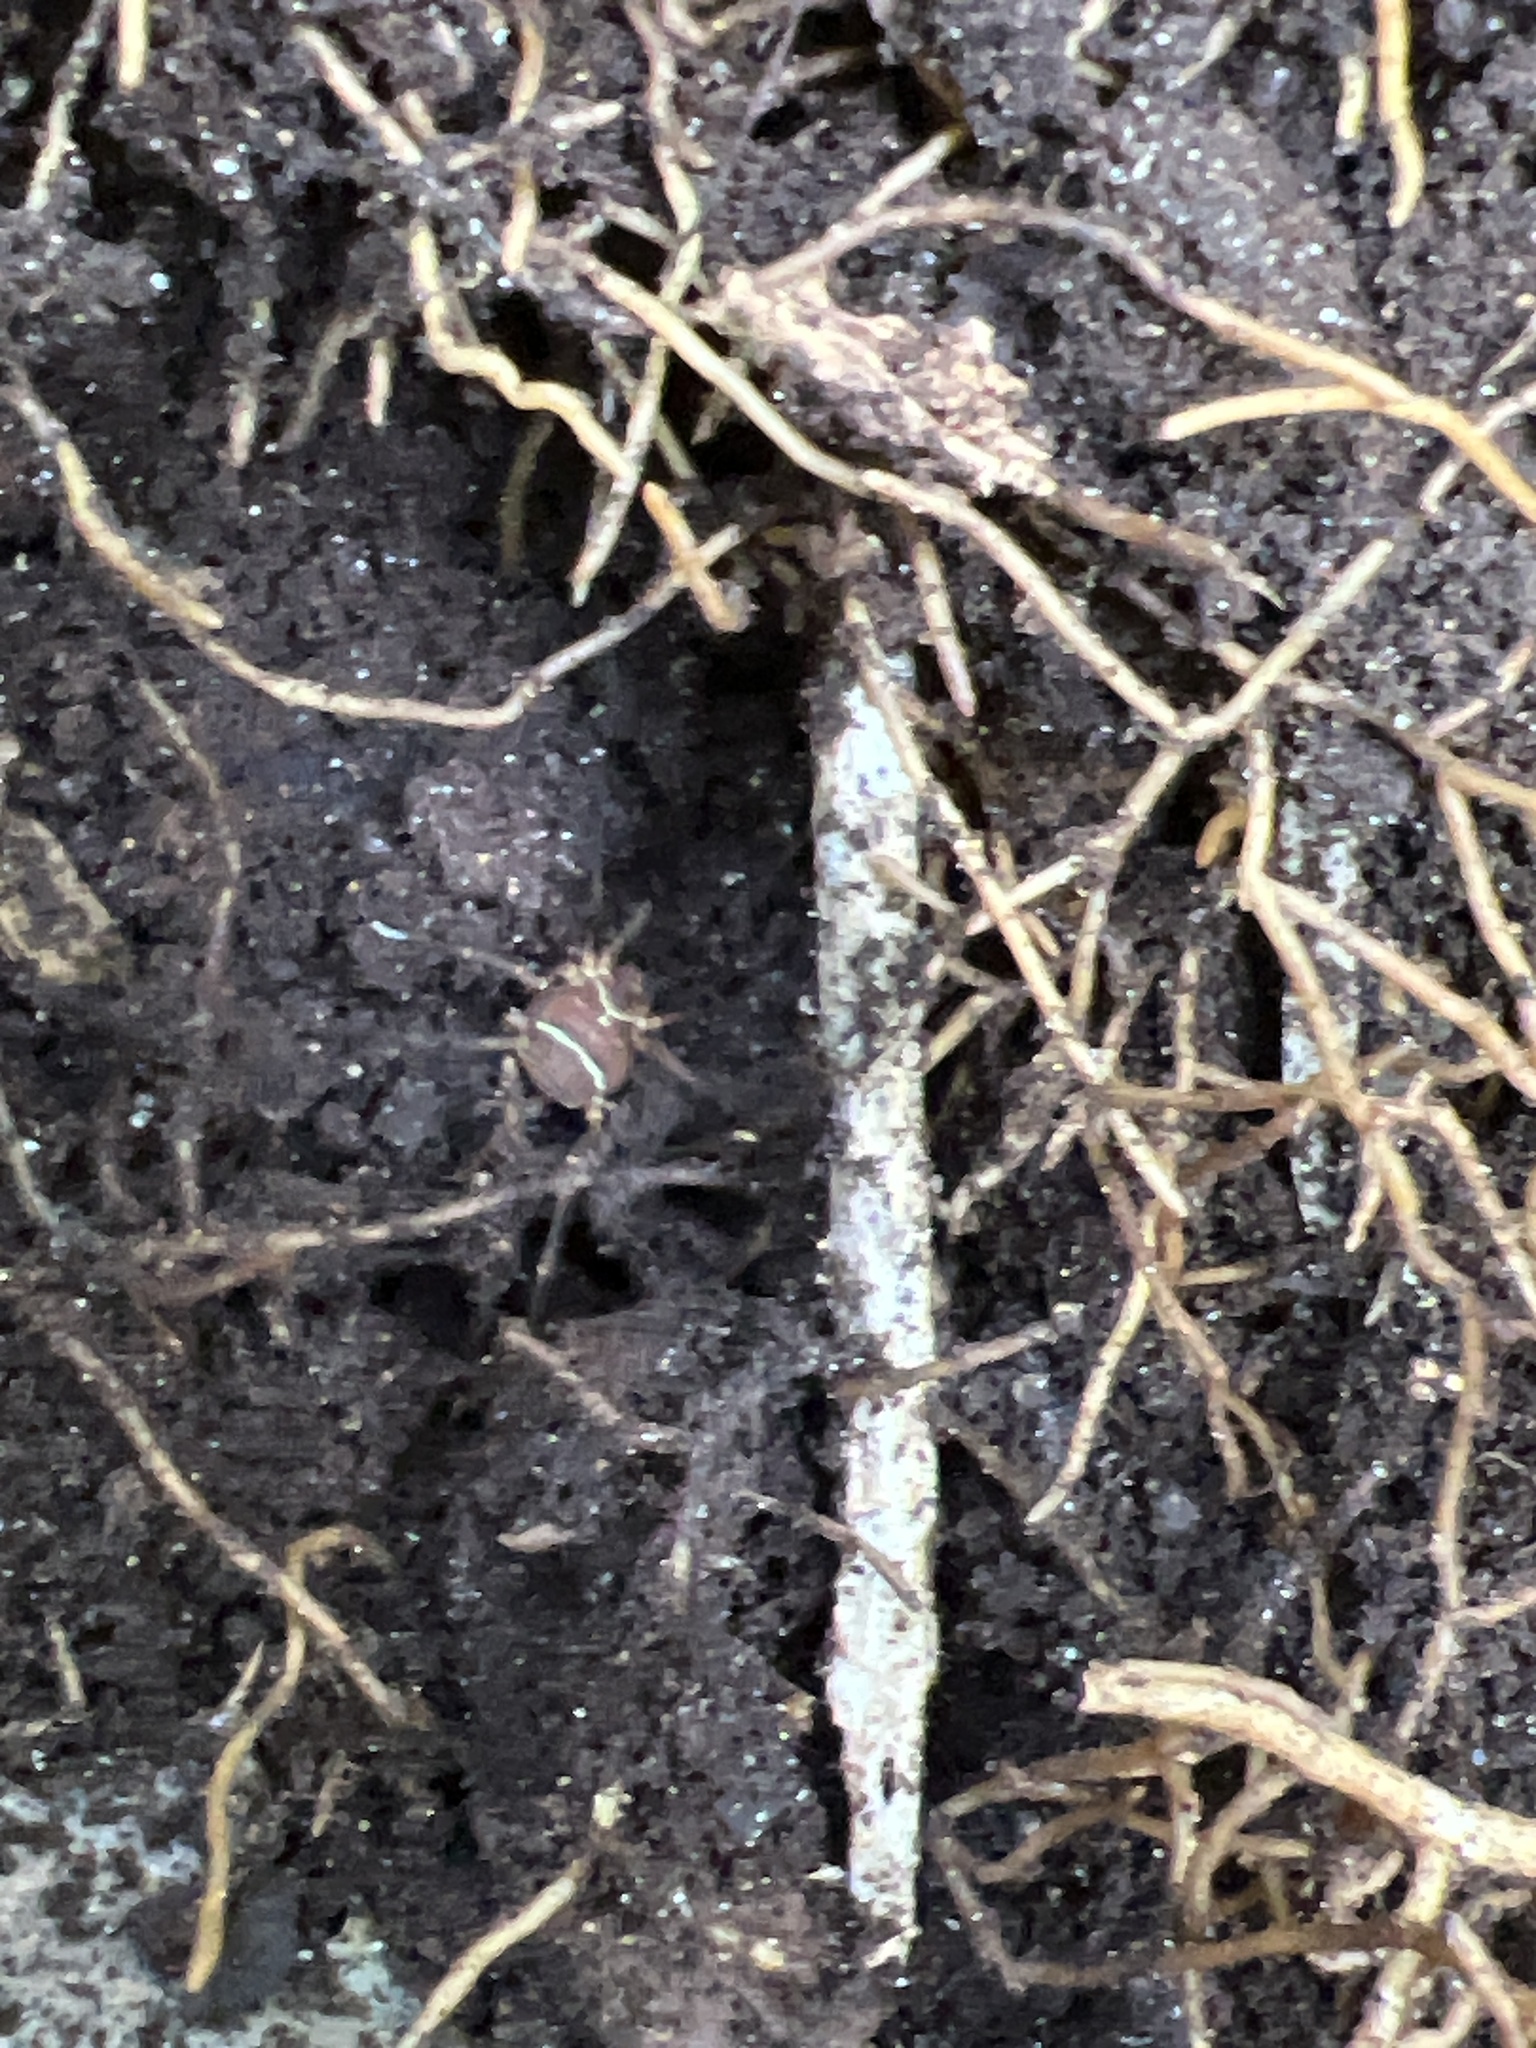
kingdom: Animalia
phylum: Arthropoda
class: Arachnida
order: Opiliones
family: Cosmetidae
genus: Libitioides
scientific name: Libitioides sayi
